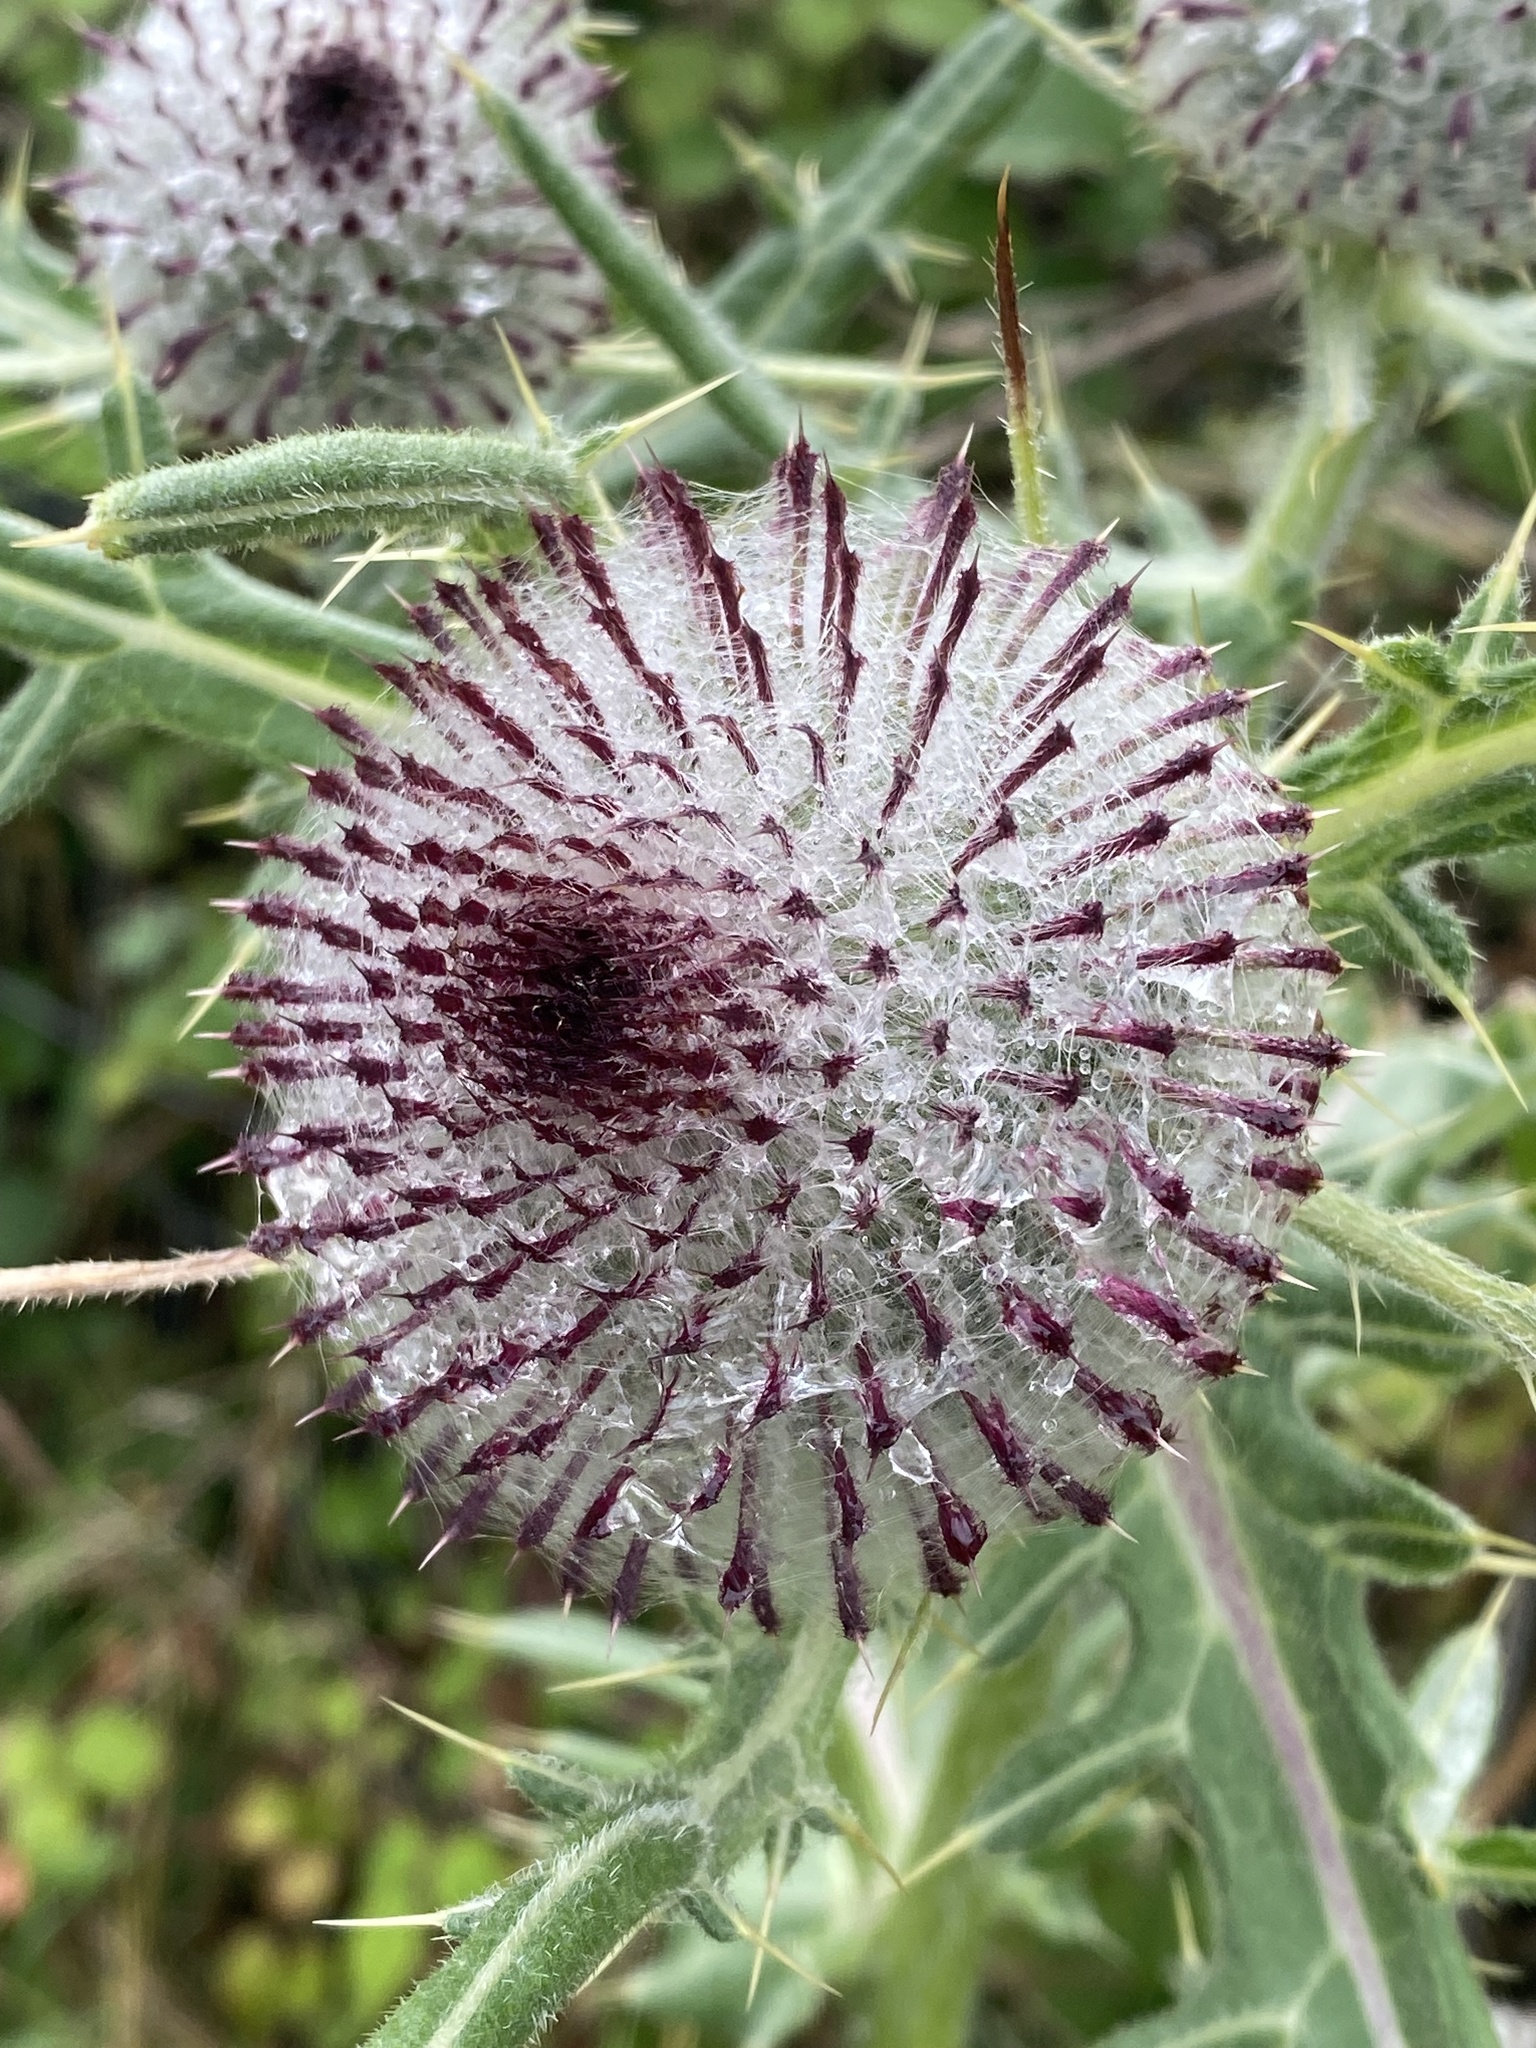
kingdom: Plantae
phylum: Tracheophyta
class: Magnoliopsida
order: Asterales
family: Asteraceae
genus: Lophiolepis
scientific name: Lophiolepis eriophora
